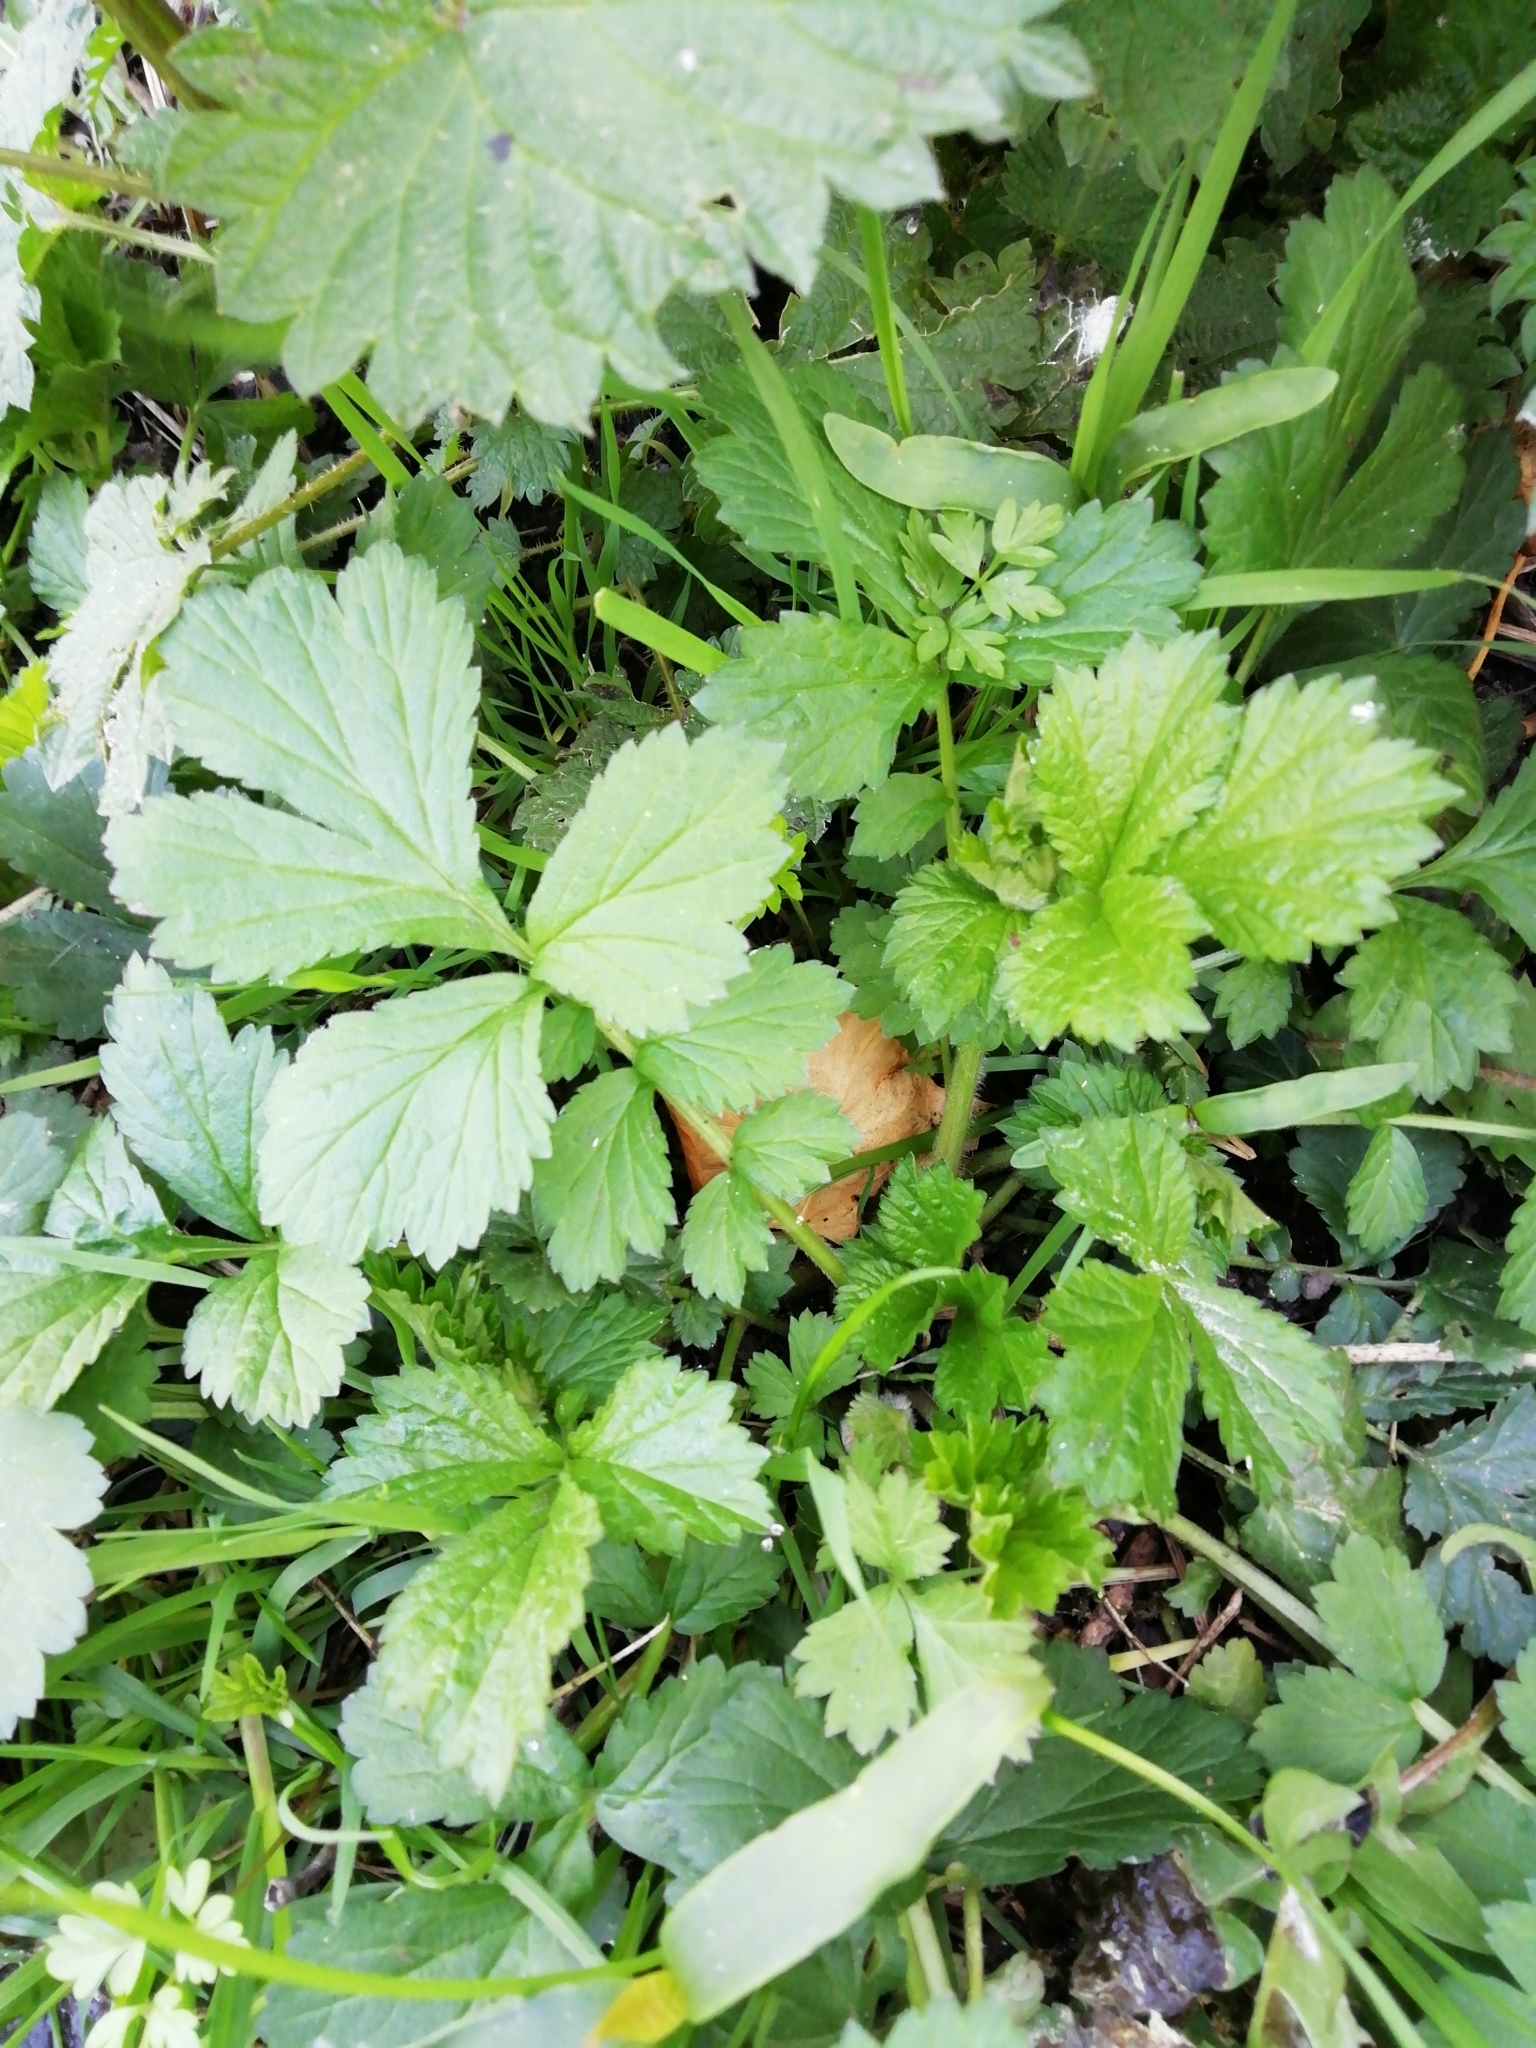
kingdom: Plantae
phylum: Tracheophyta
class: Magnoliopsida
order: Rosales
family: Rosaceae
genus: Geum
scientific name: Geum urbanum
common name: Wood avens
